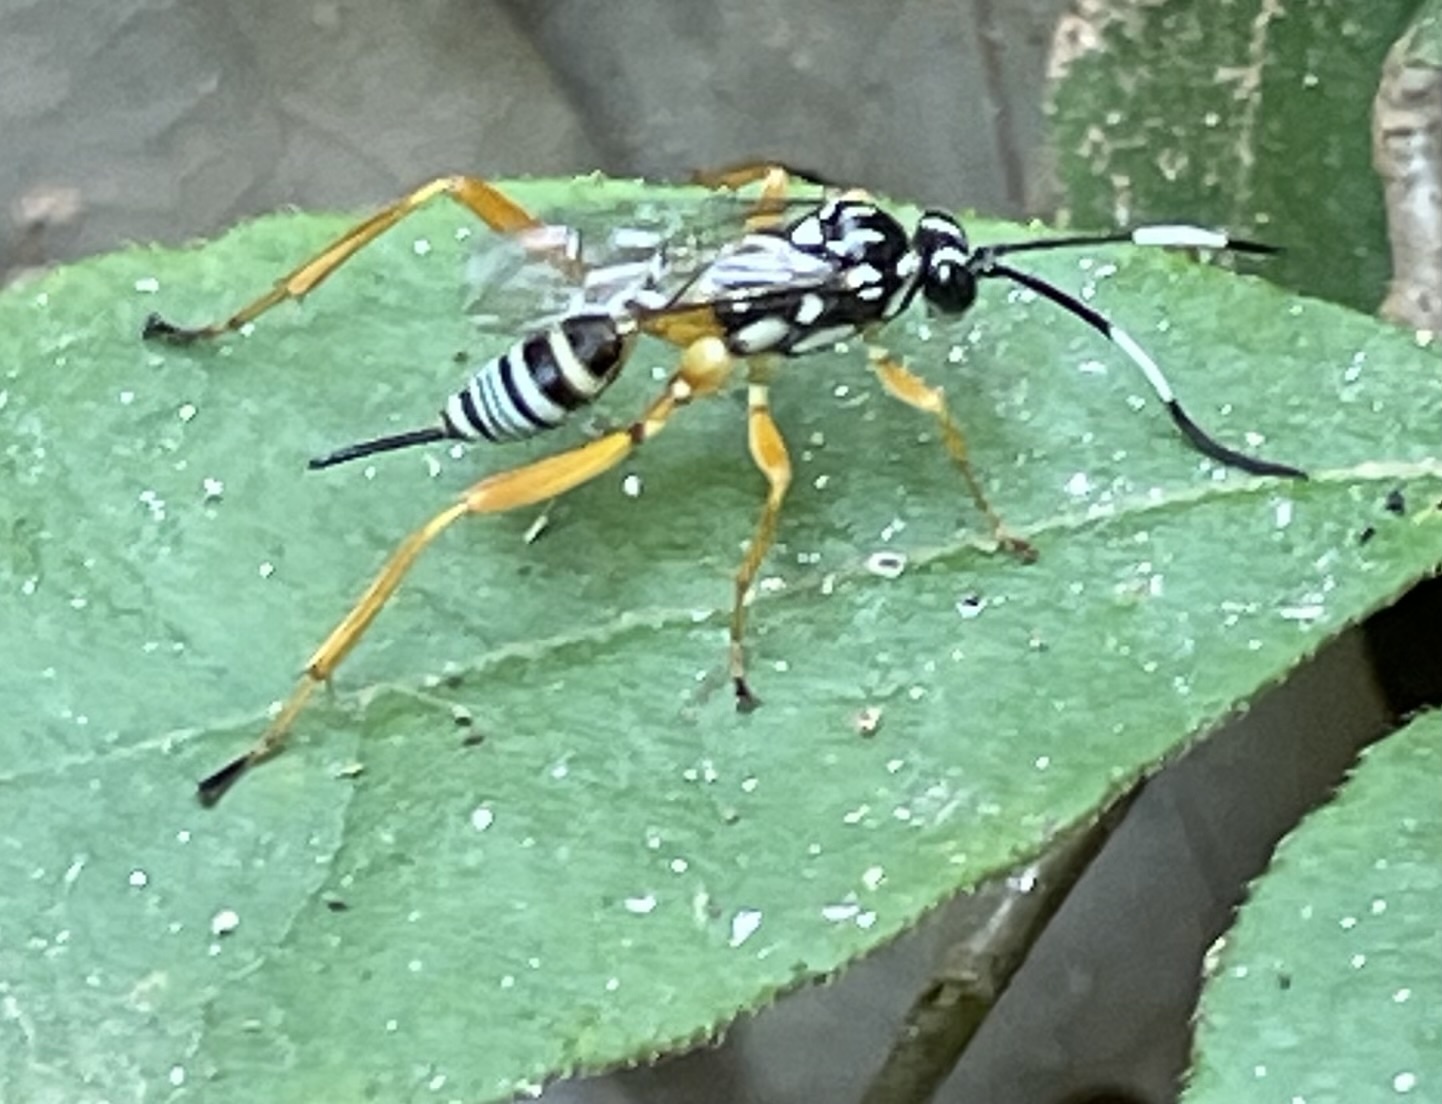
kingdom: Animalia
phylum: Arthropoda
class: Insecta
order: Hymenoptera
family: Ichneumonidae
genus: Baryceros
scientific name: Baryceros texanus
